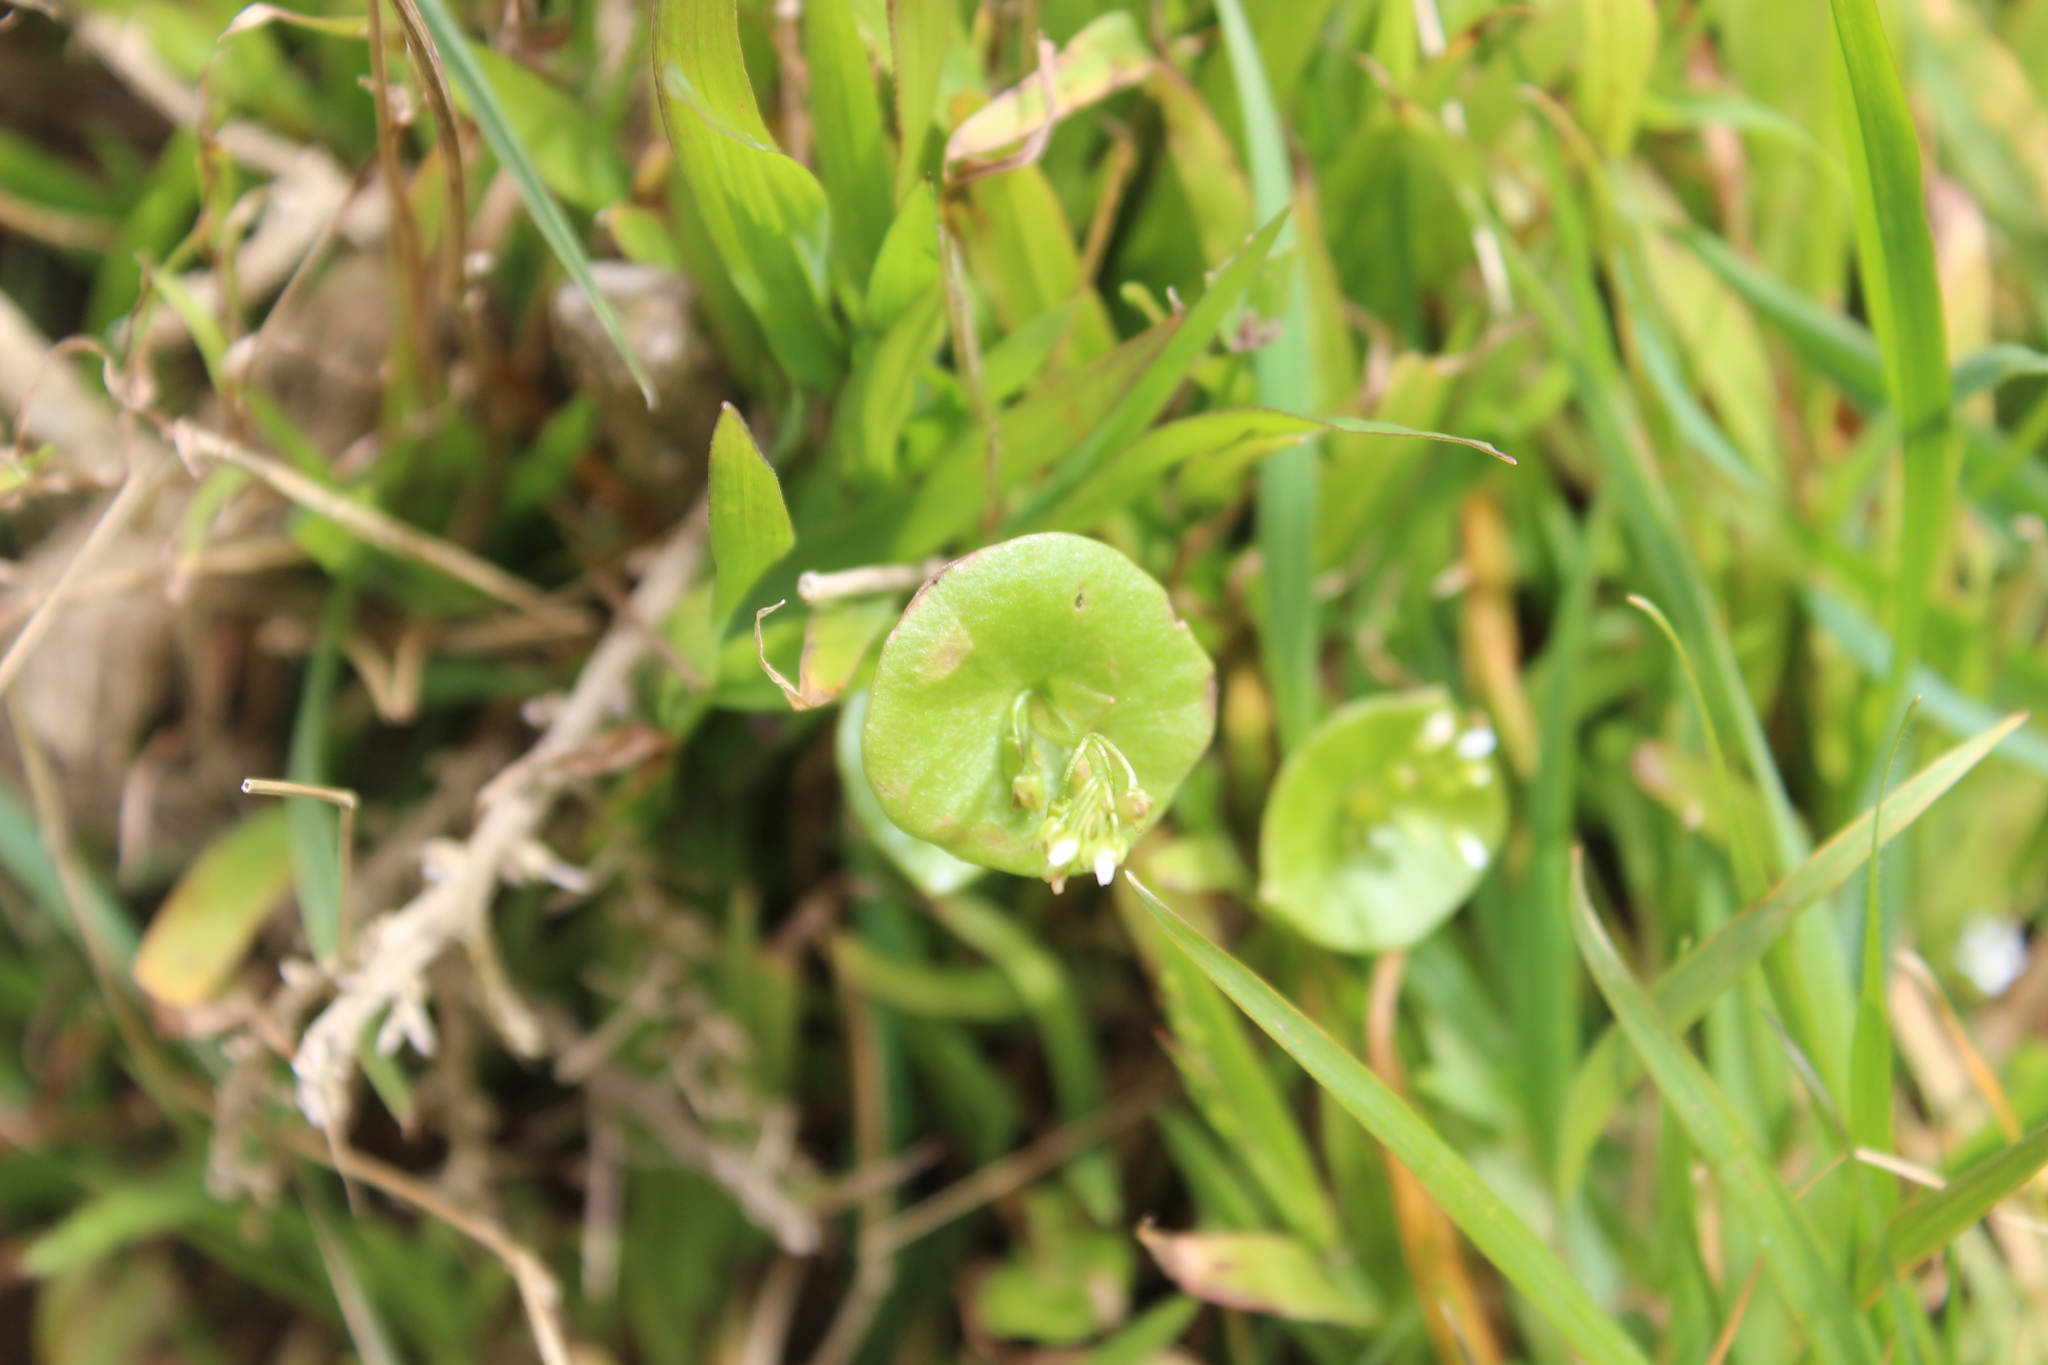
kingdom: Plantae
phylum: Tracheophyta
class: Magnoliopsida
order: Caryophyllales
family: Montiaceae
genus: Claytonia
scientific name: Claytonia perfoliata
